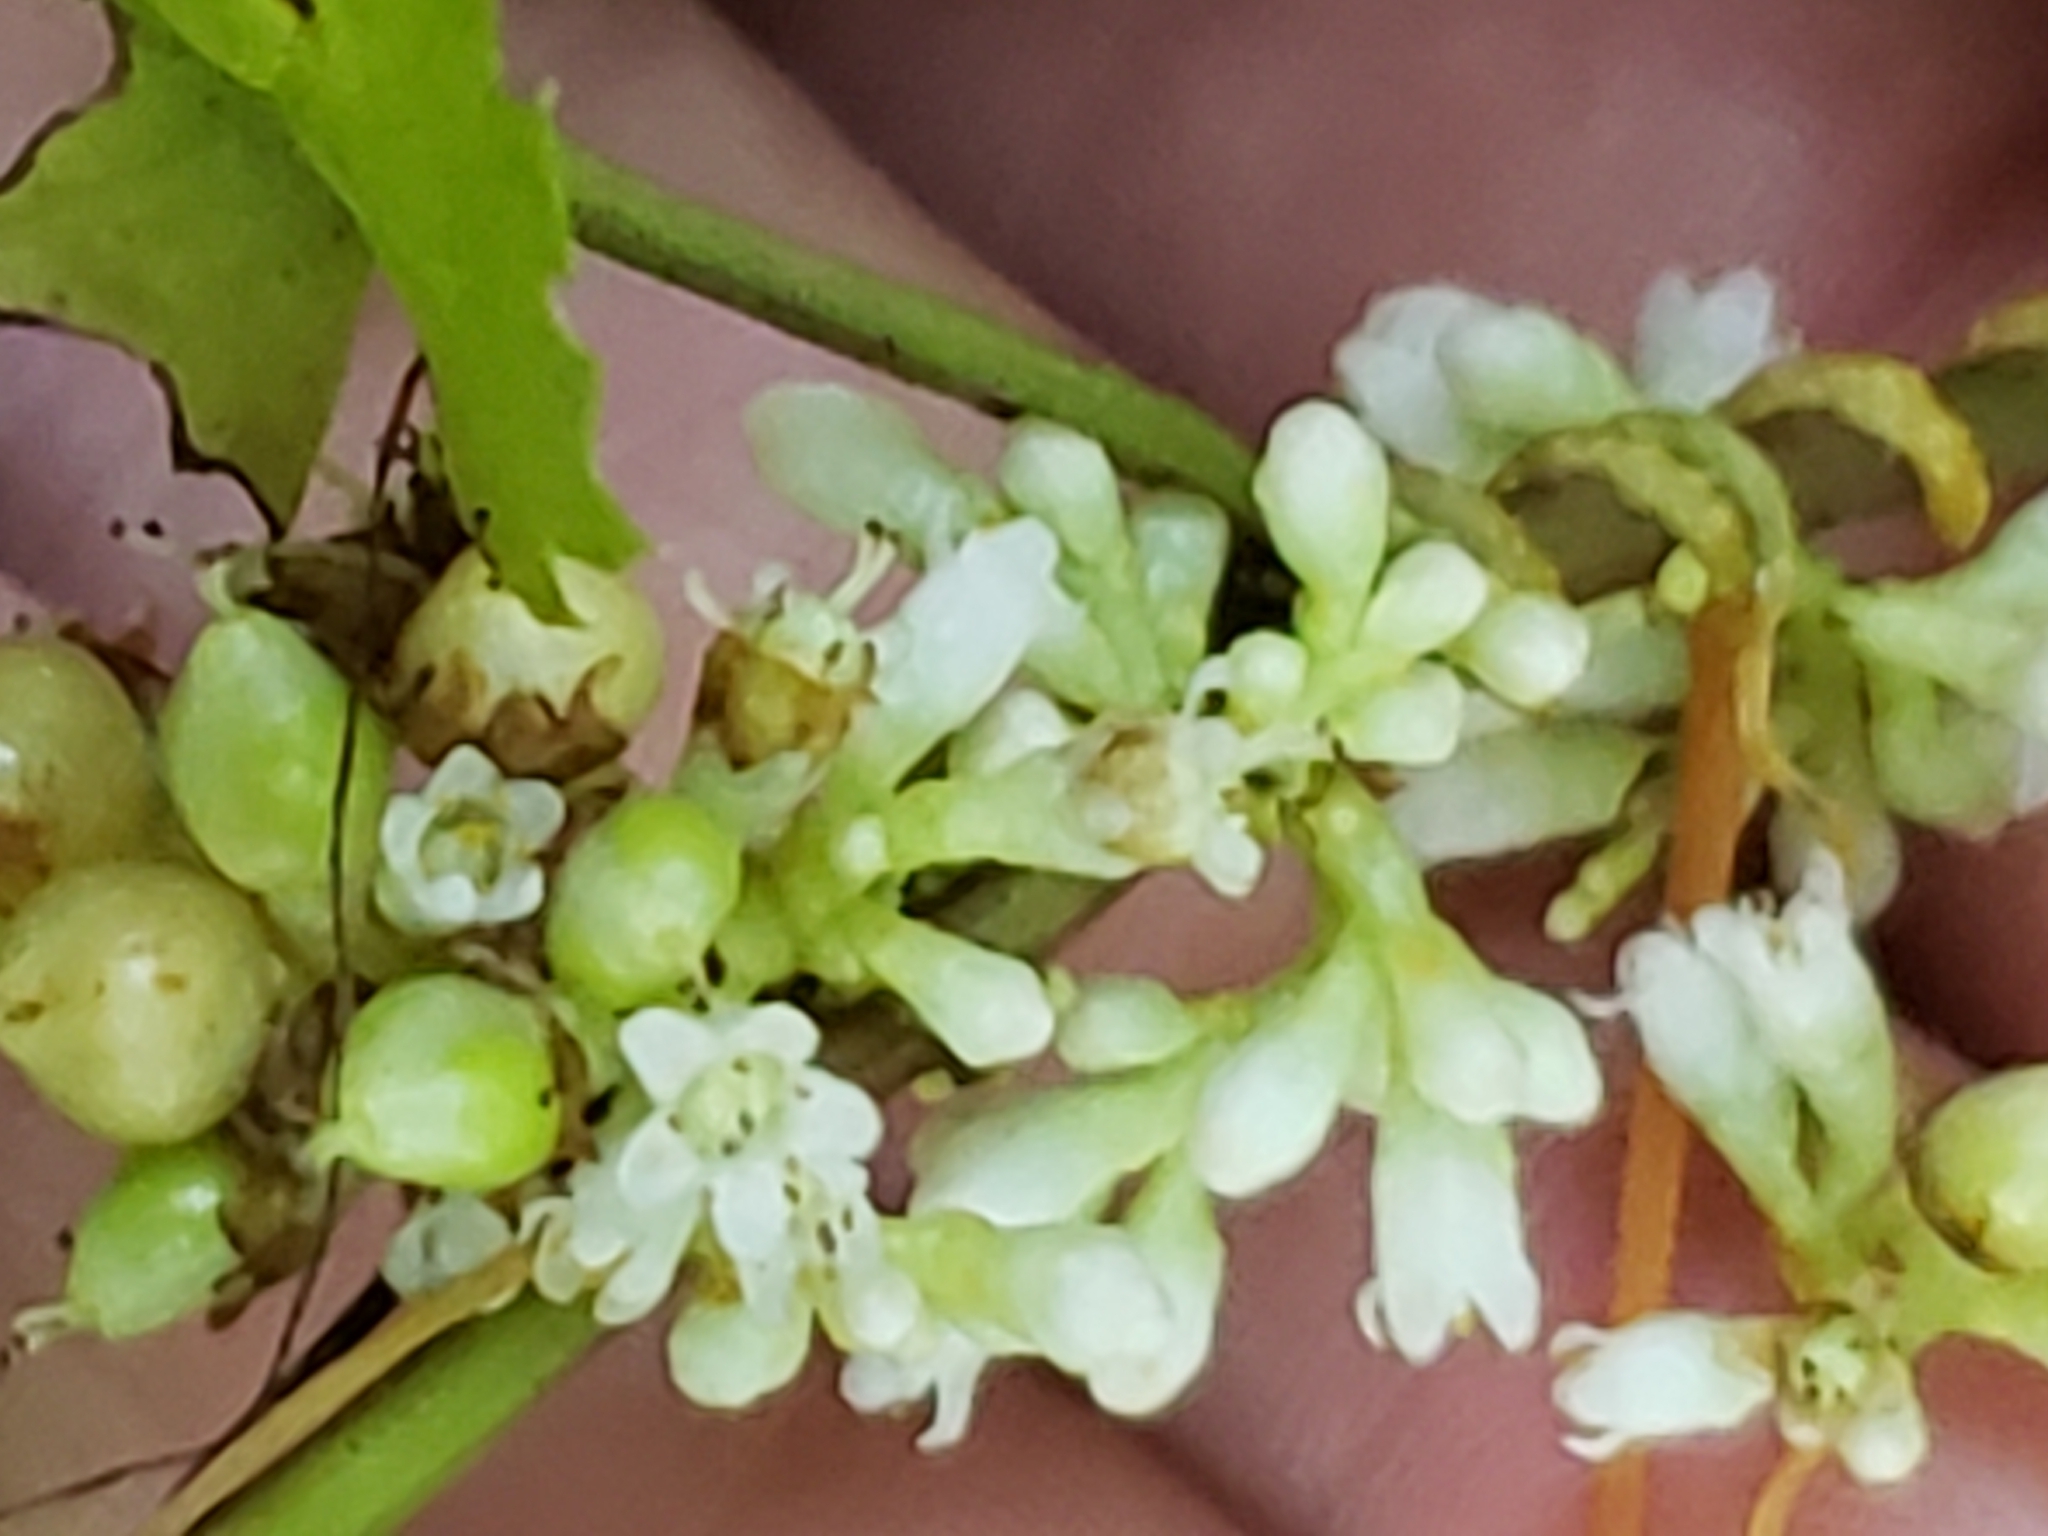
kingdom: Plantae
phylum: Tracheophyta
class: Magnoliopsida
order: Solanales
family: Convolvulaceae
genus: Cuscuta
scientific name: Cuscuta gronovii
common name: Common dodder
